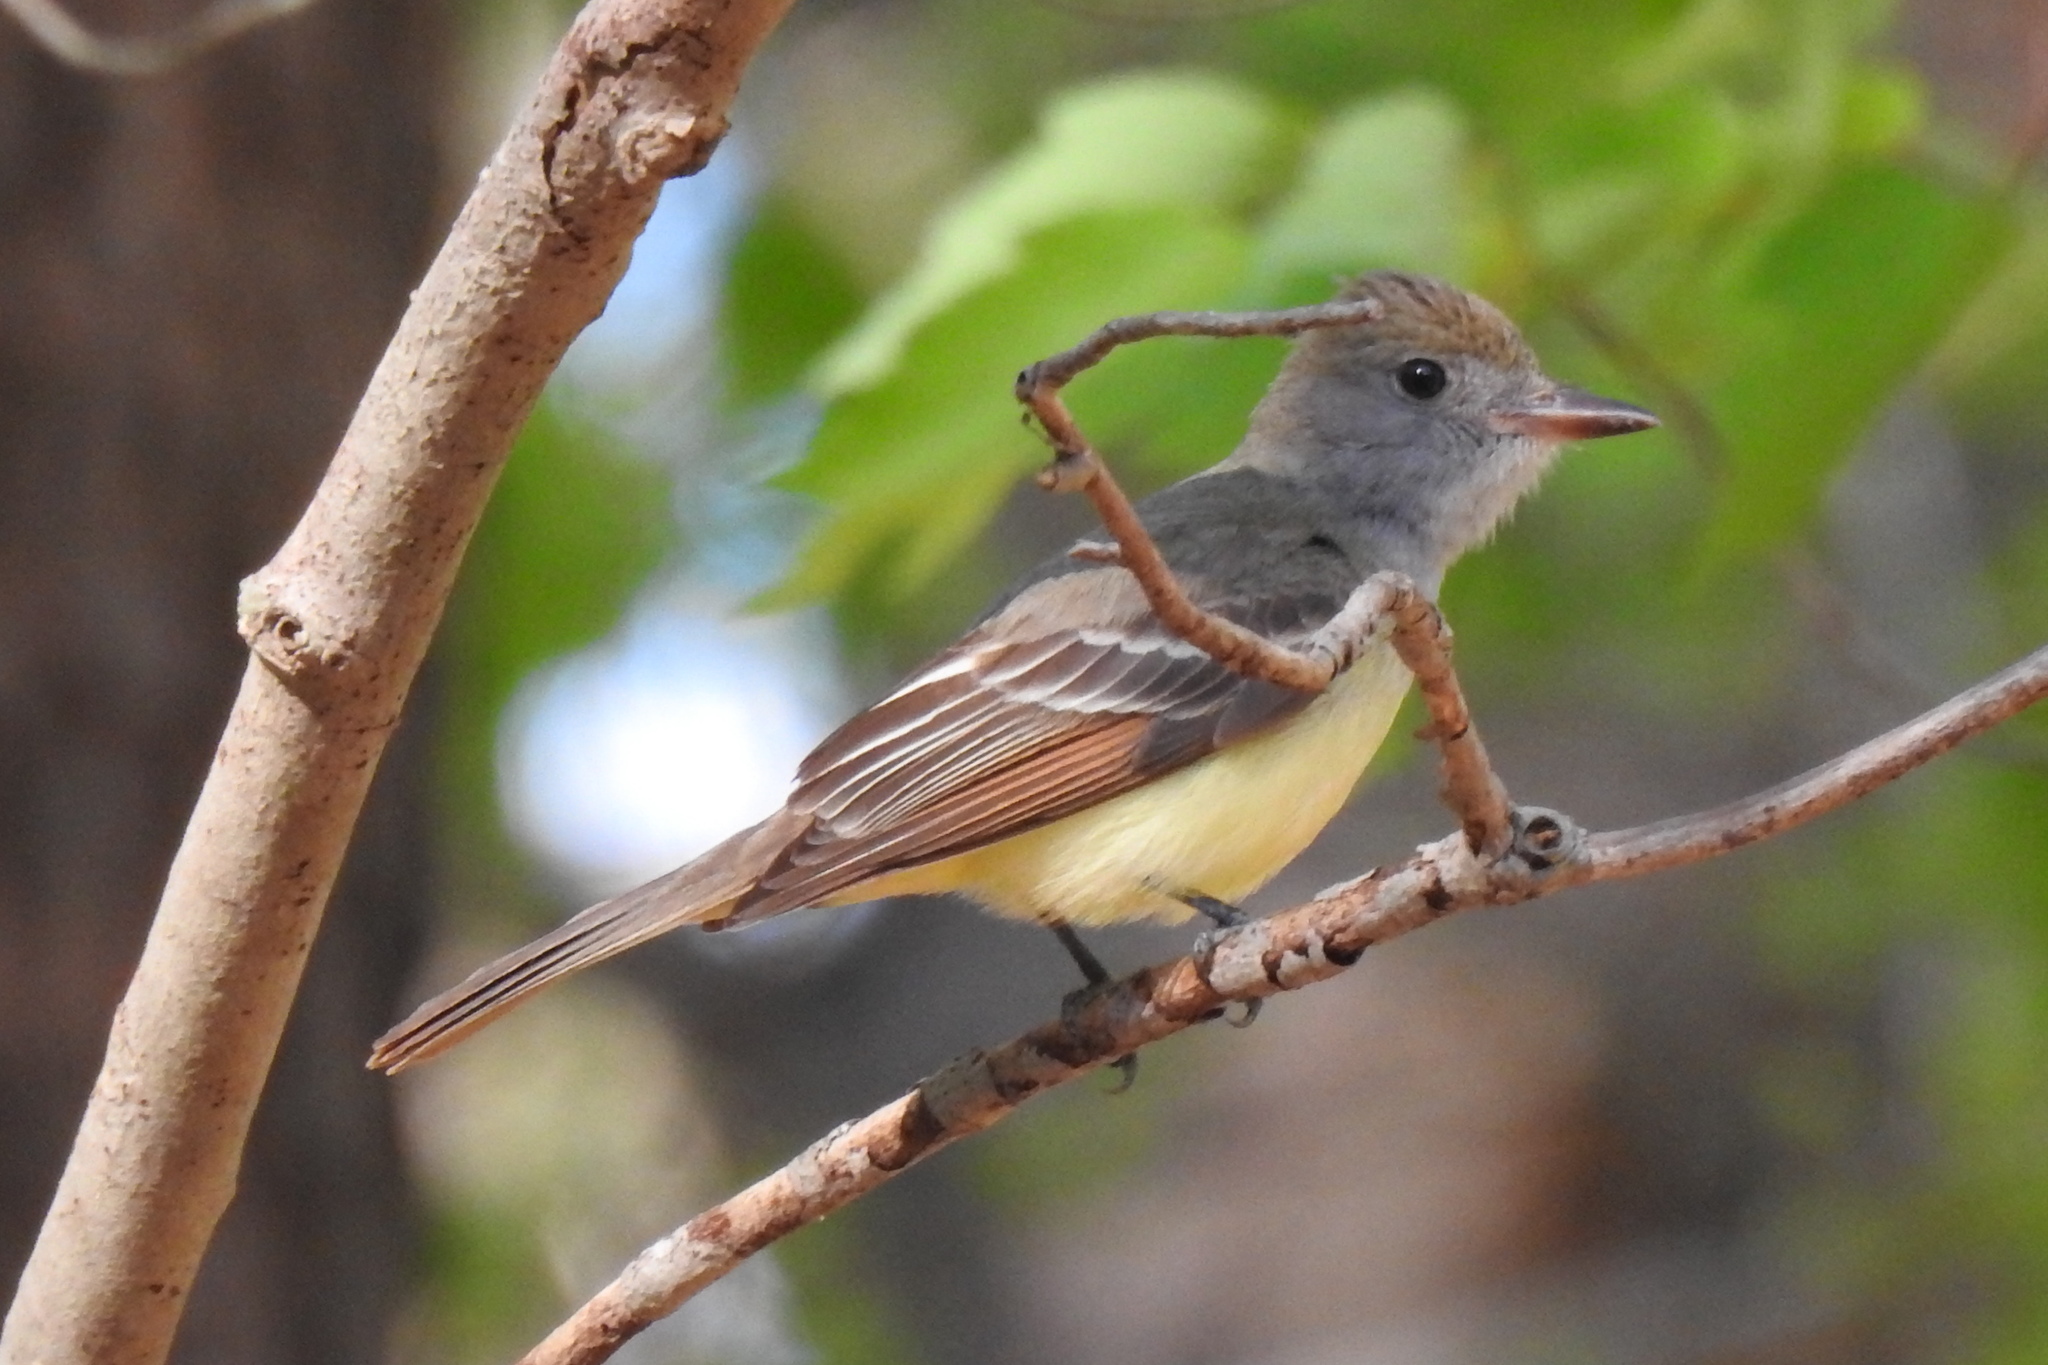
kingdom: Animalia
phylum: Chordata
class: Aves
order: Passeriformes
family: Tyrannidae
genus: Myiarchus
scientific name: Myiarchus crinitus
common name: Great crested flycatcher
